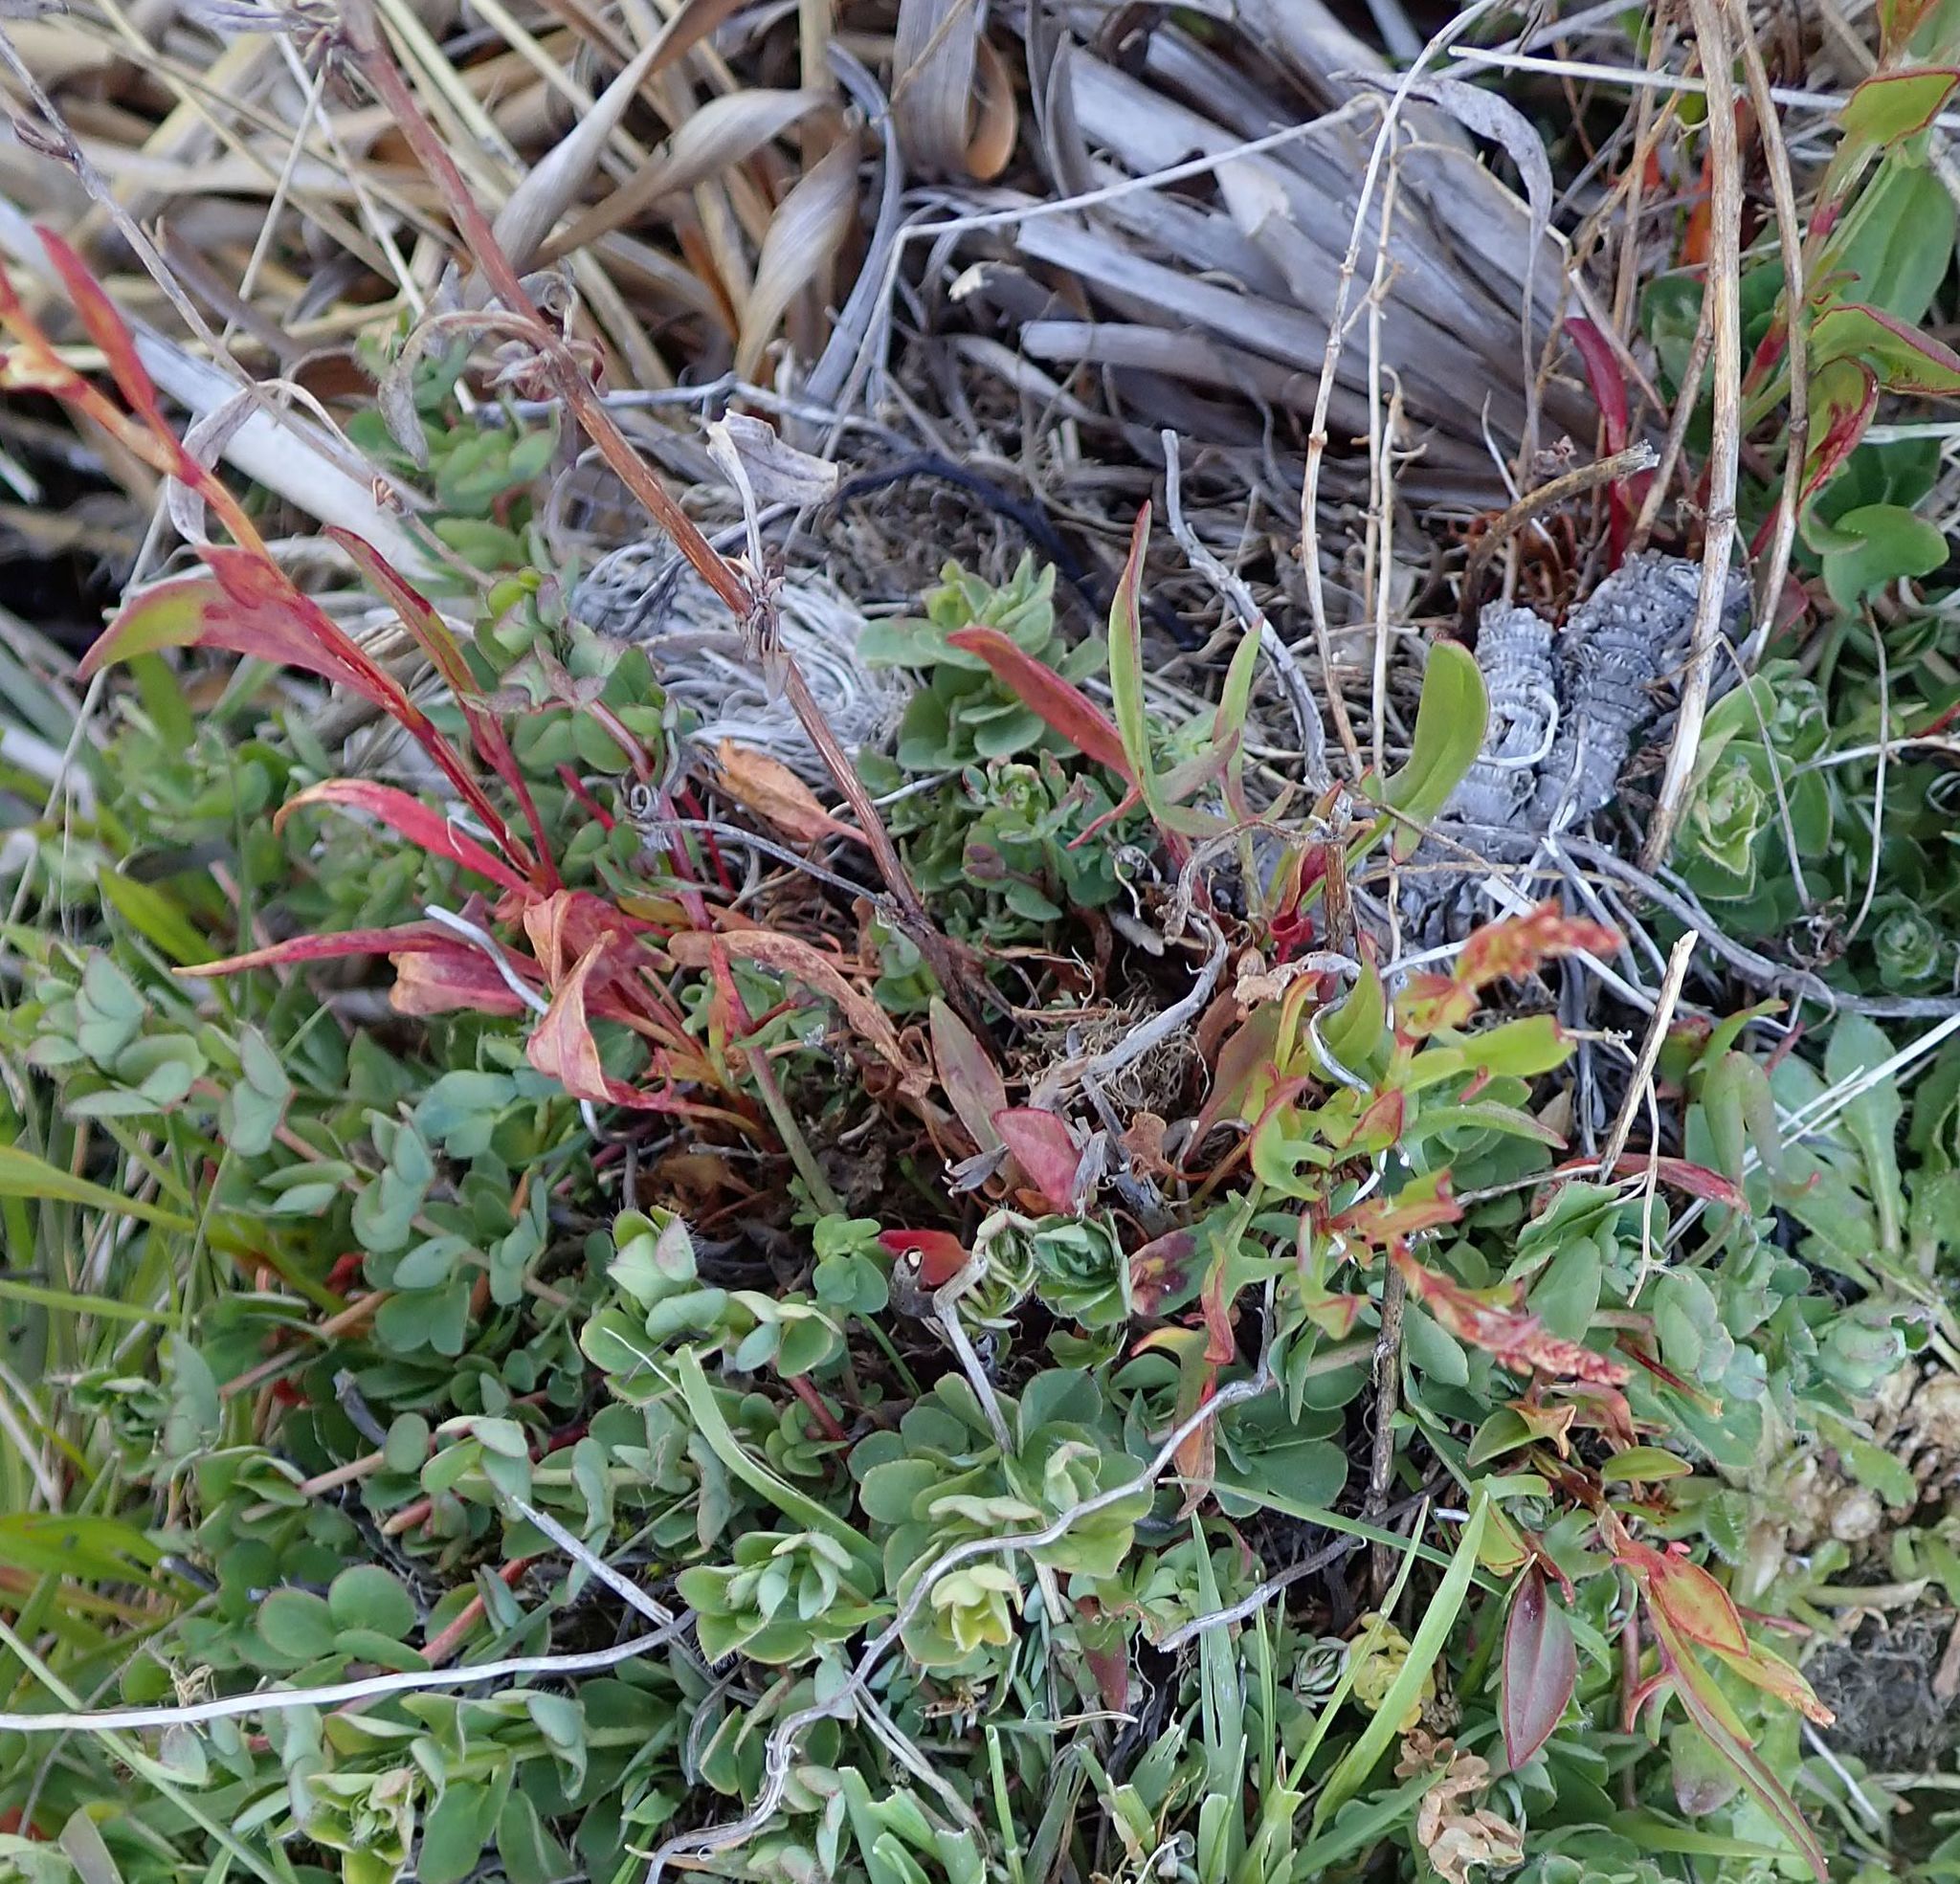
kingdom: Plantae
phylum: Tracheophyta
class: Magnoliopsida
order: Caryophyllales
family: Polygonaceae
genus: Rumex
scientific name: Rumex acetosella
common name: Common sheep sorrel
